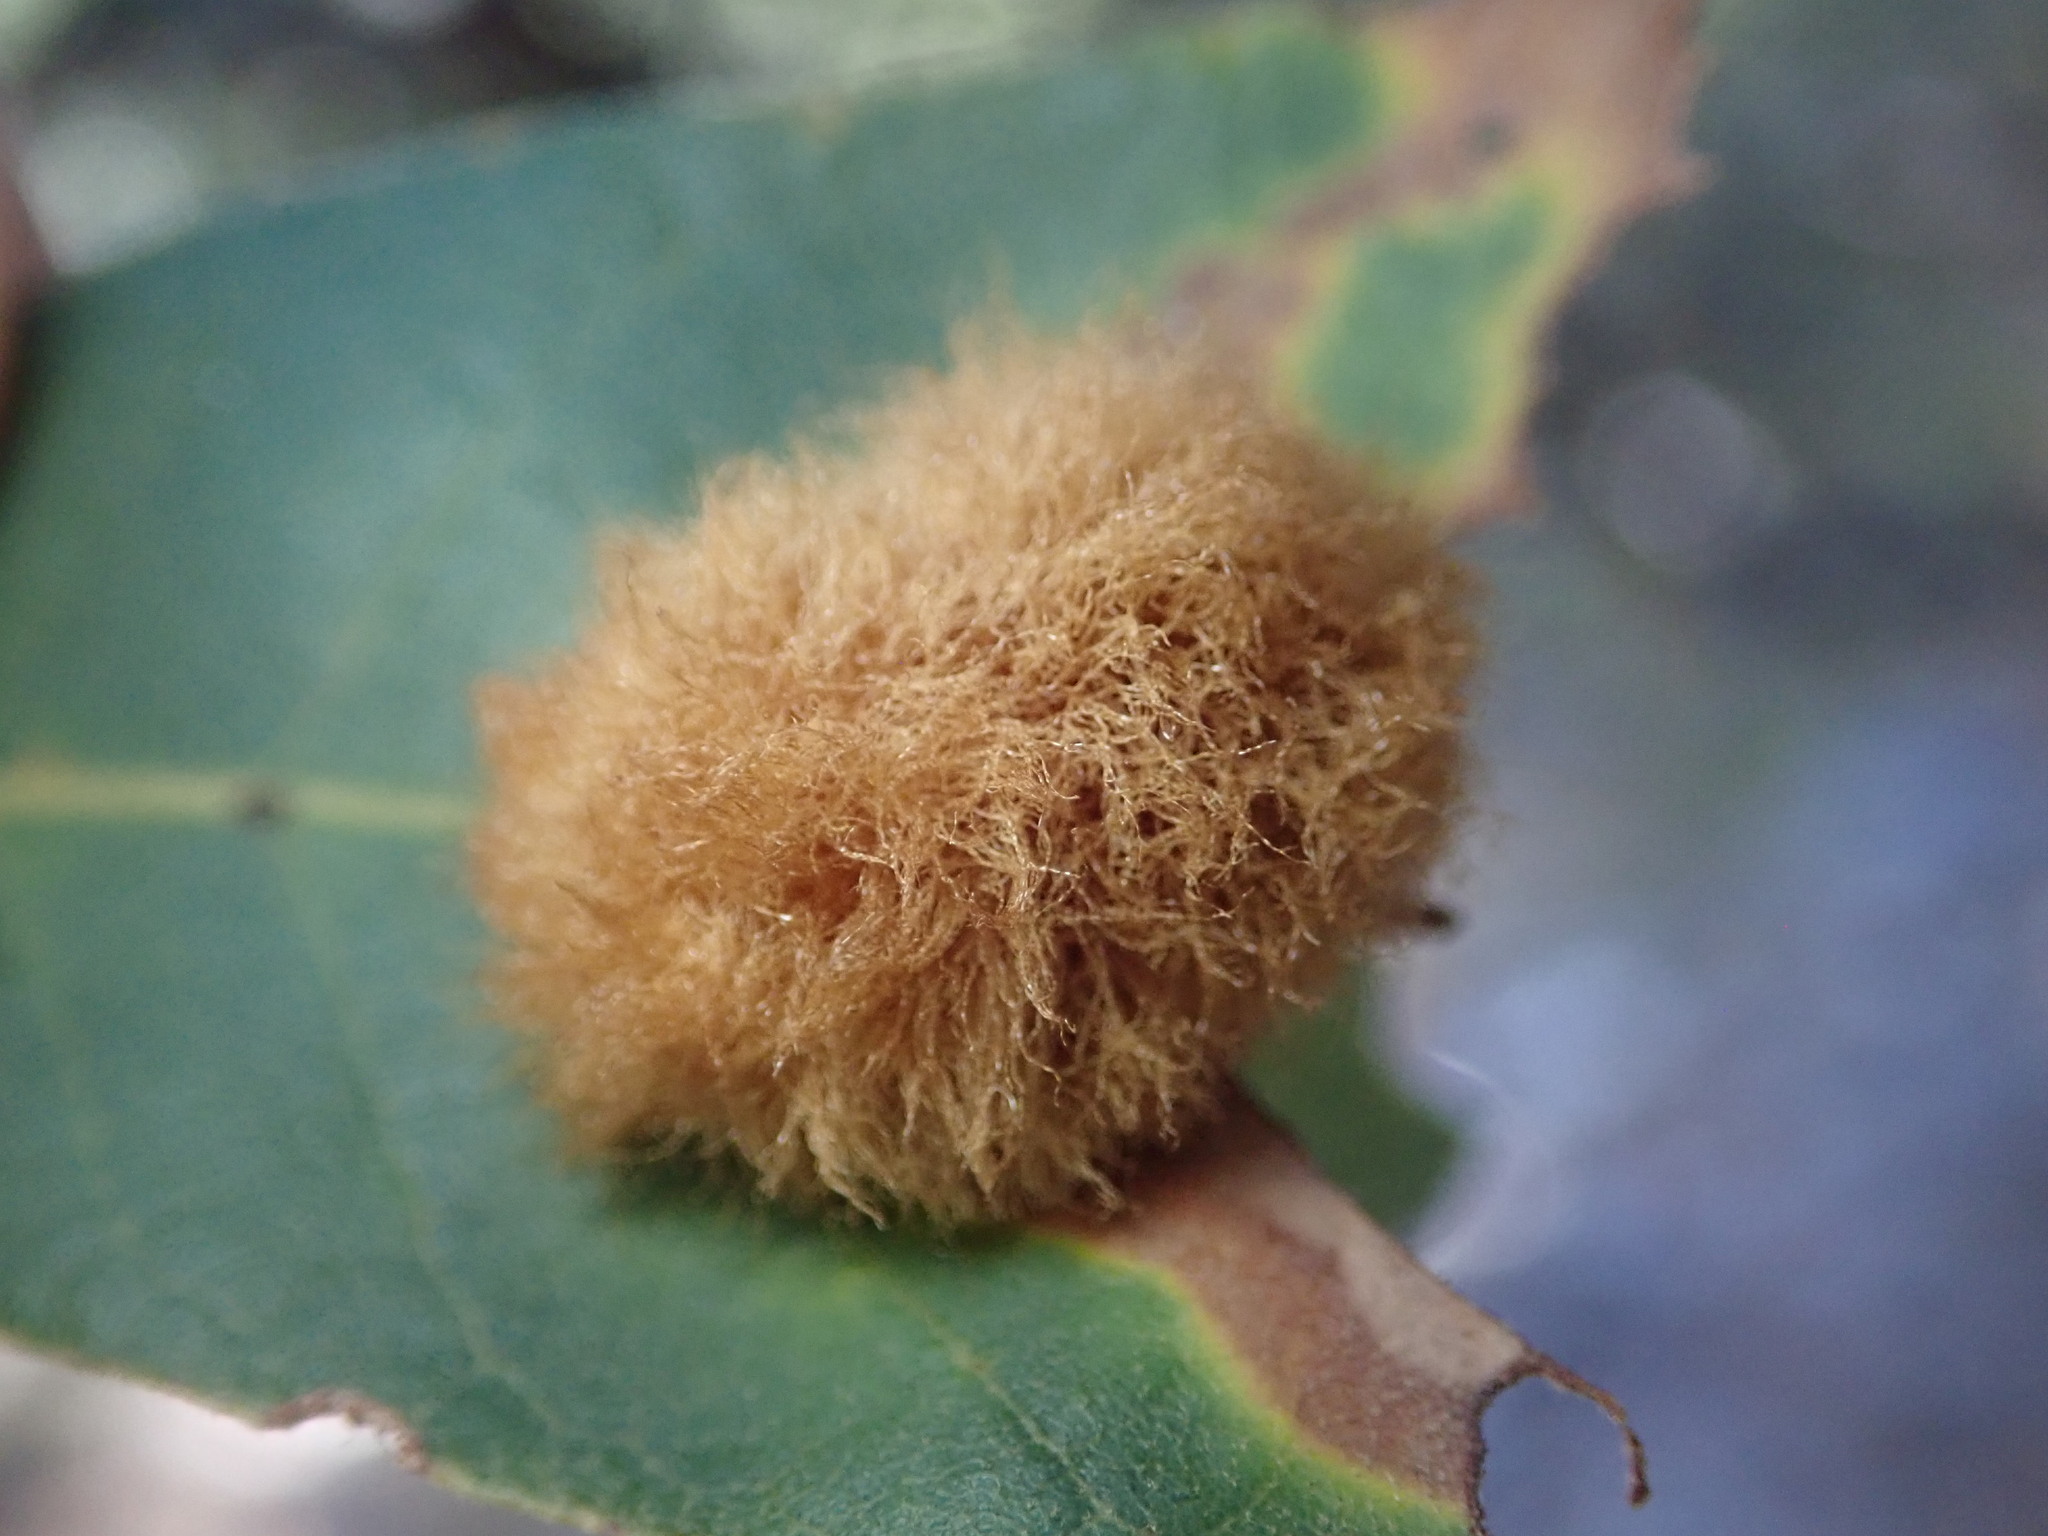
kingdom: Animalia
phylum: Arthropoda
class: Insecta
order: Hymenoptera
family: Cynipidae
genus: Striatoandricus
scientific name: Striatoandricus tenuicornis
